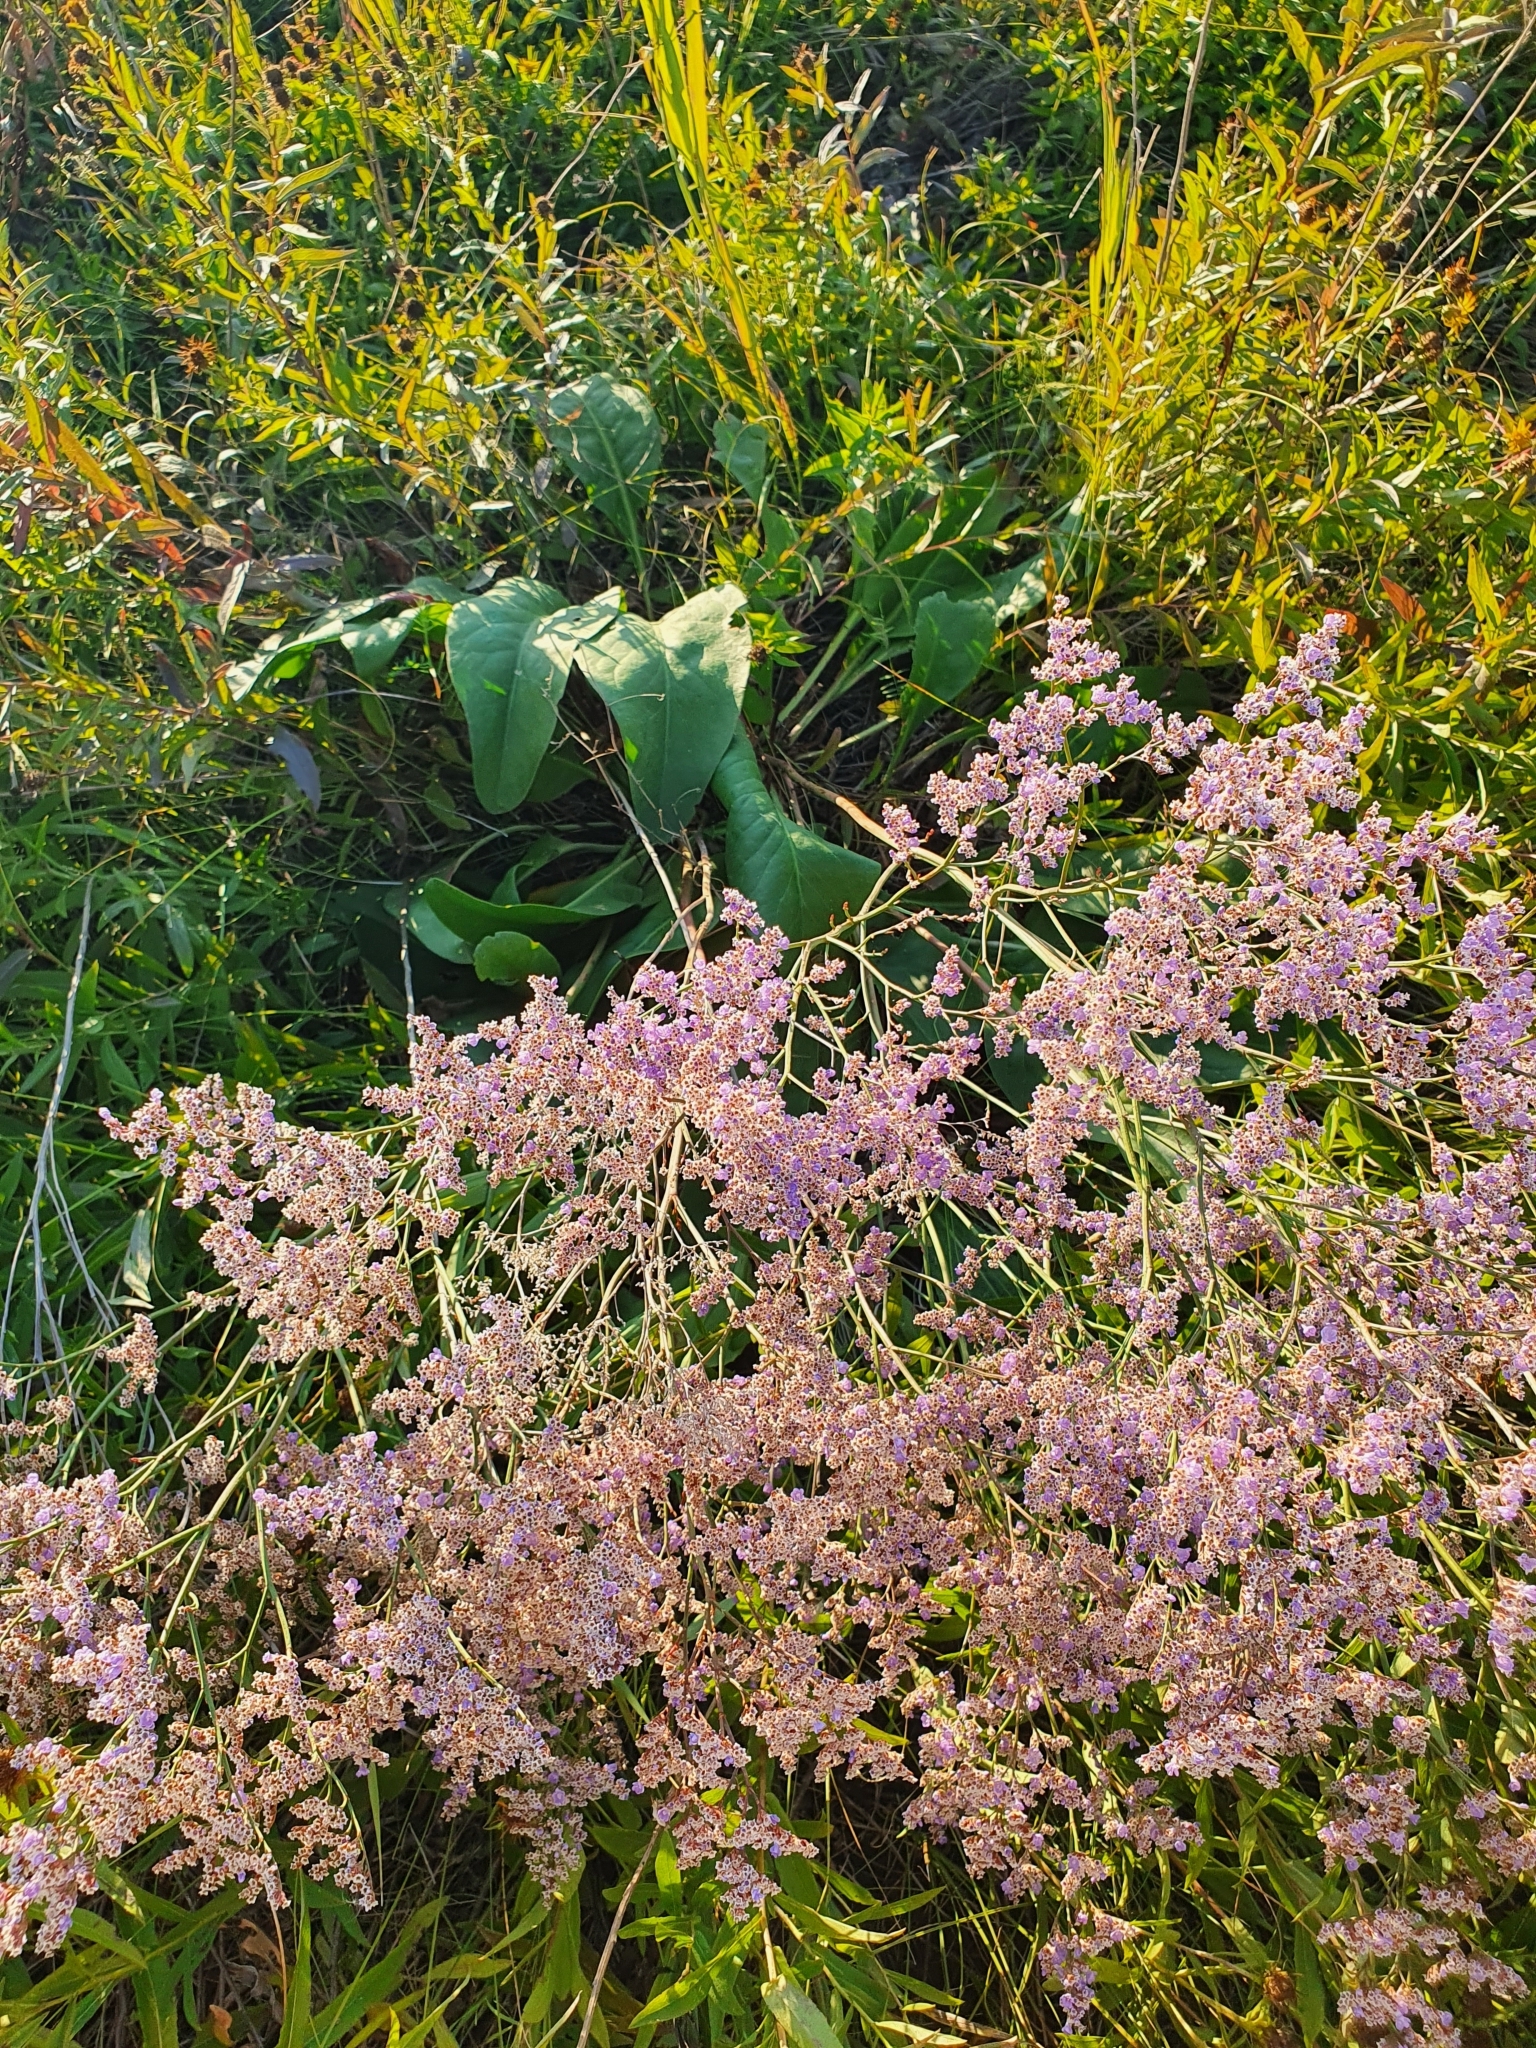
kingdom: Plantae
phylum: Tracheophyta
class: Magnoliopsida
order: Caryophyllales
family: Plumbaginaceae
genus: Limonium
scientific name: Limonium gmelini
